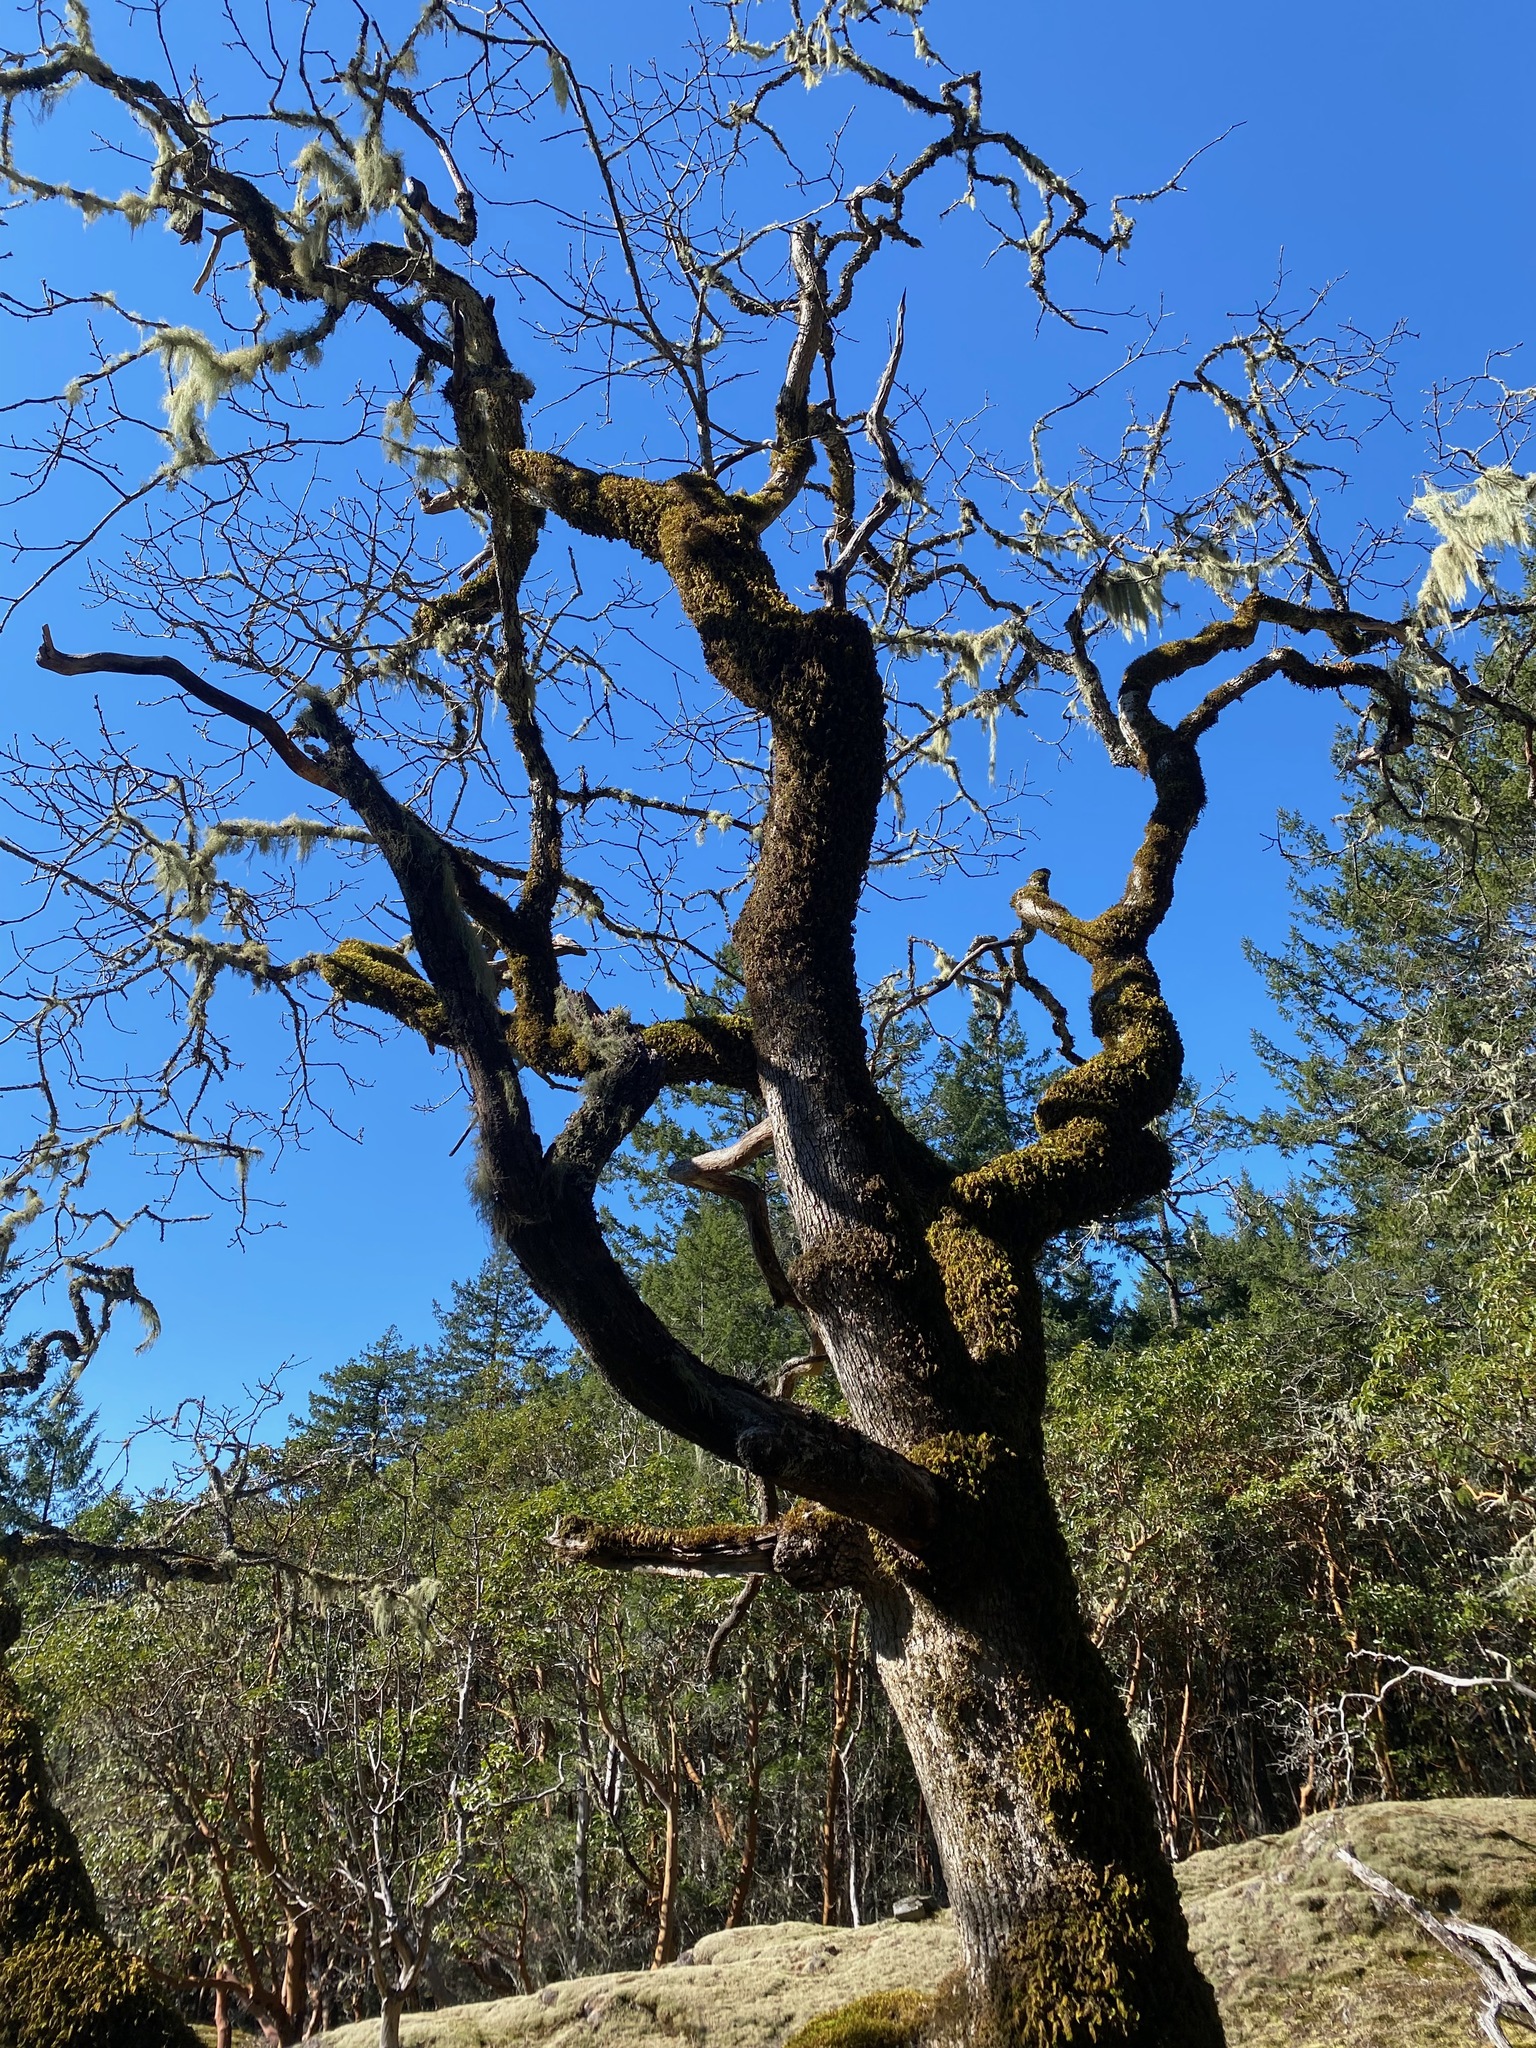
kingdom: Plantae
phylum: Tracheophyta
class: Magnoliopsida
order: Fagales
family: Fagaceae
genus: Quercus
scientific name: Quercus garryana
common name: Garry oak
